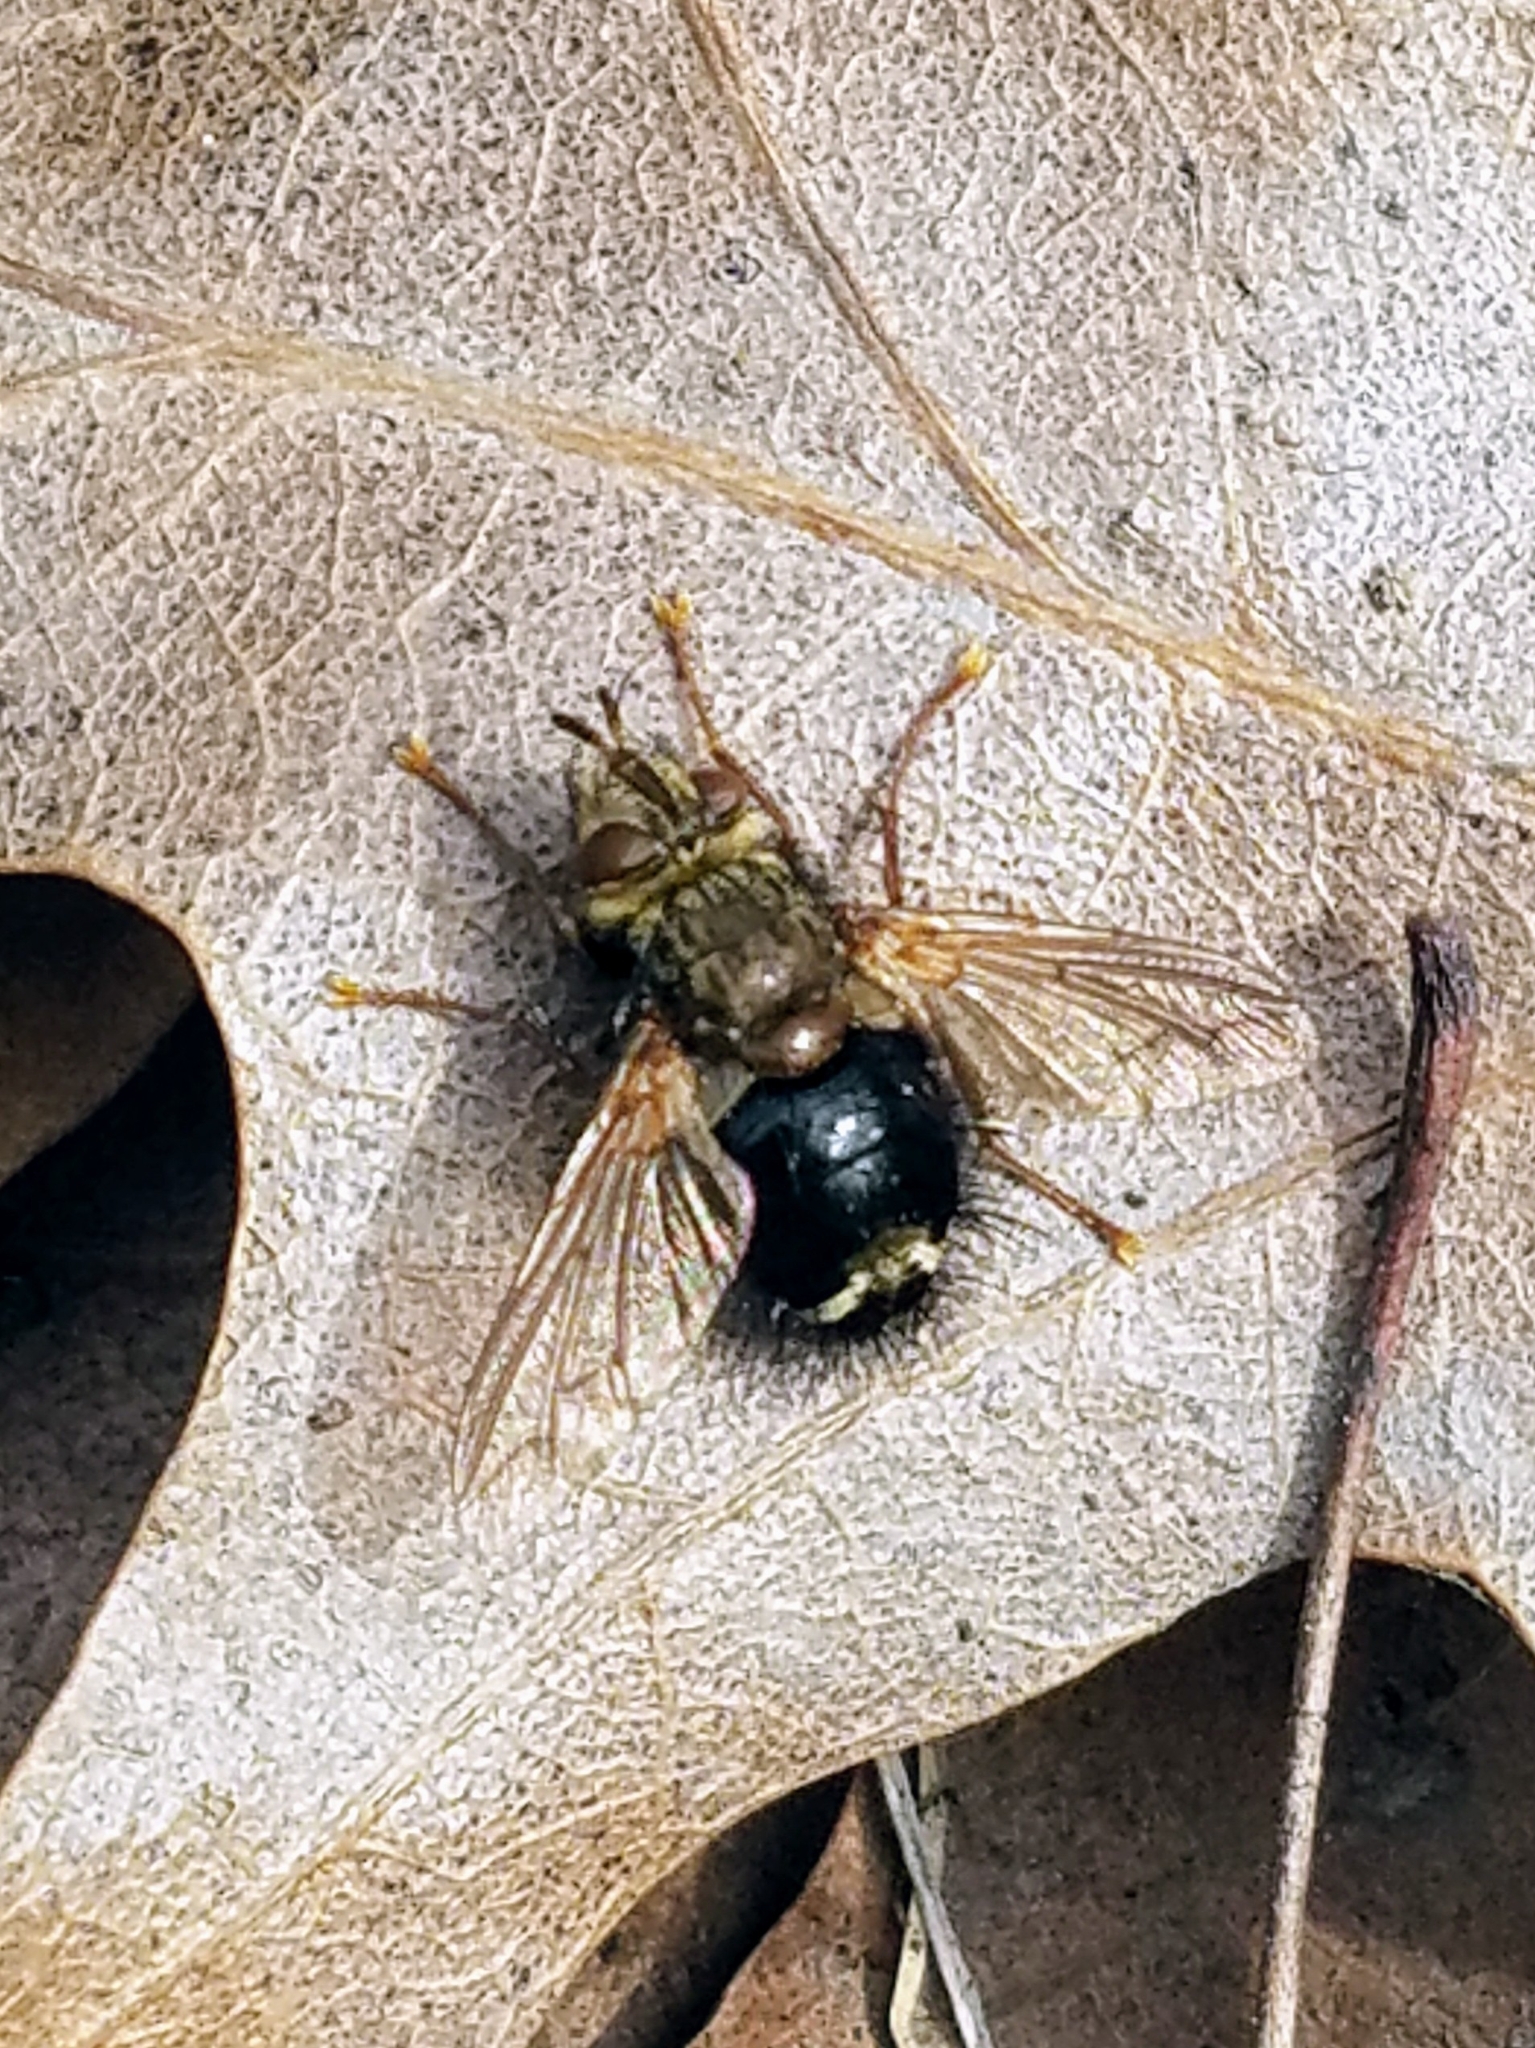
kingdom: Animalia
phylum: Arthropoda
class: Insecta
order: Diptera
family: Tachinidae
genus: Epalpus
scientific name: Epalpus signifer
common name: Early tachinid fly
